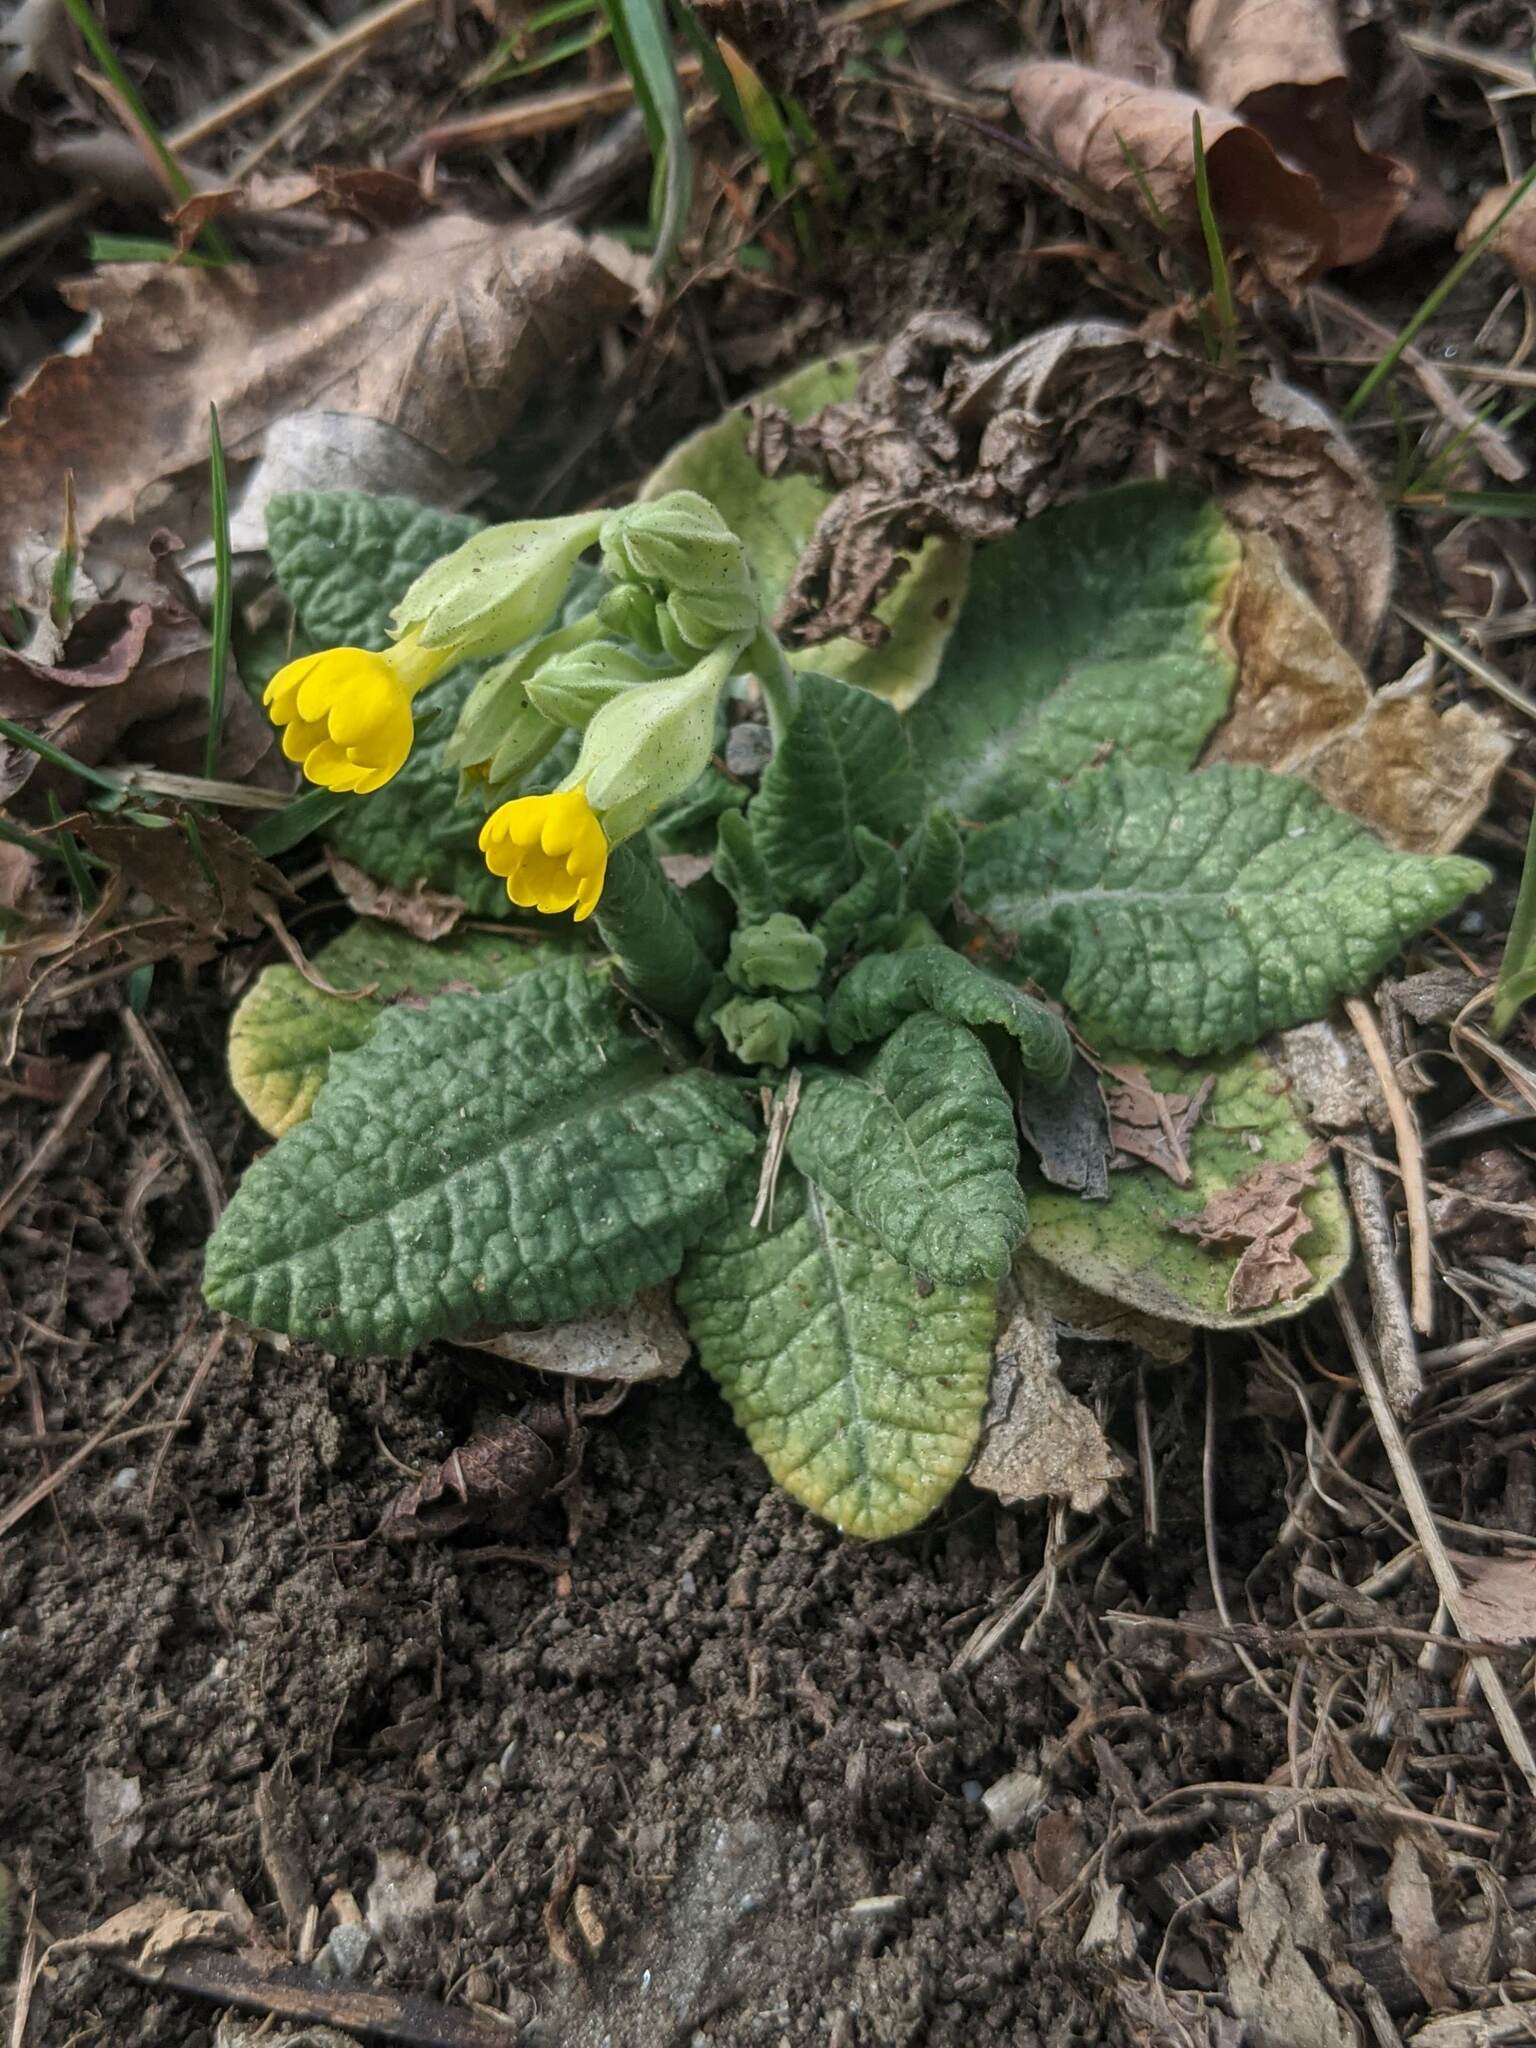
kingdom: Plantae
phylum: Tracheophyta
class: Magnoliopsida
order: Ericales
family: Primulaceae
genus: Primula
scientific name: Primula veris
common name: Cowslip
